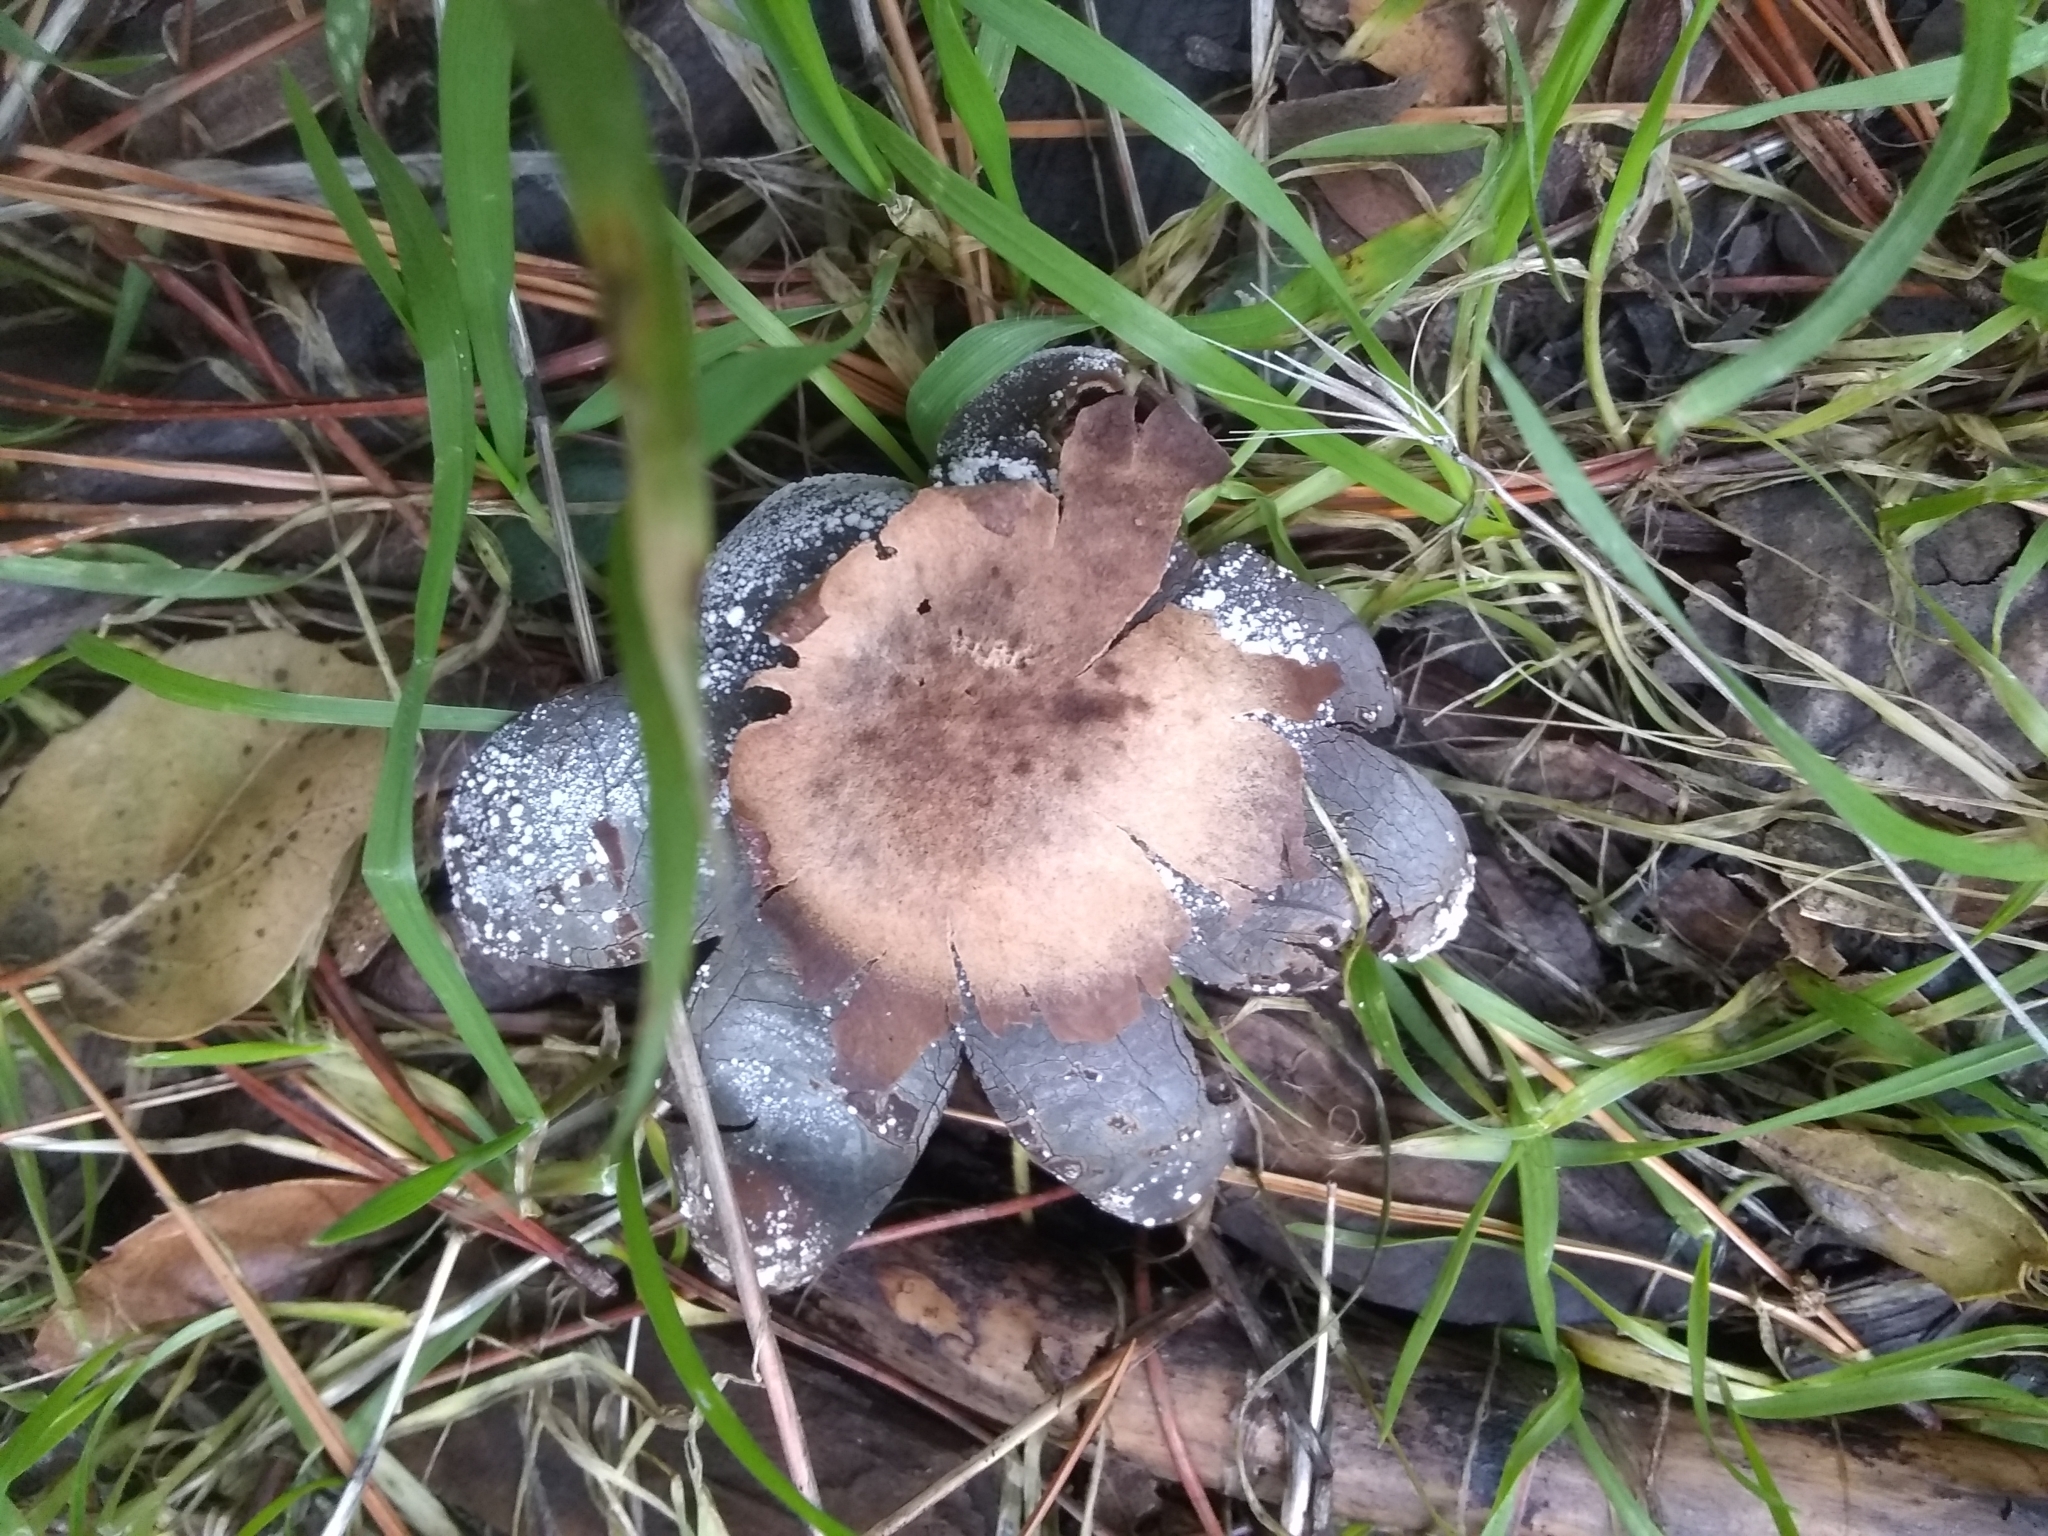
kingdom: Fungi
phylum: Basidiomycota
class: Agaricomycetes
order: Boletales
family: Diplocystidiaceae
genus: Astraeus
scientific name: Astraeus pteridis
